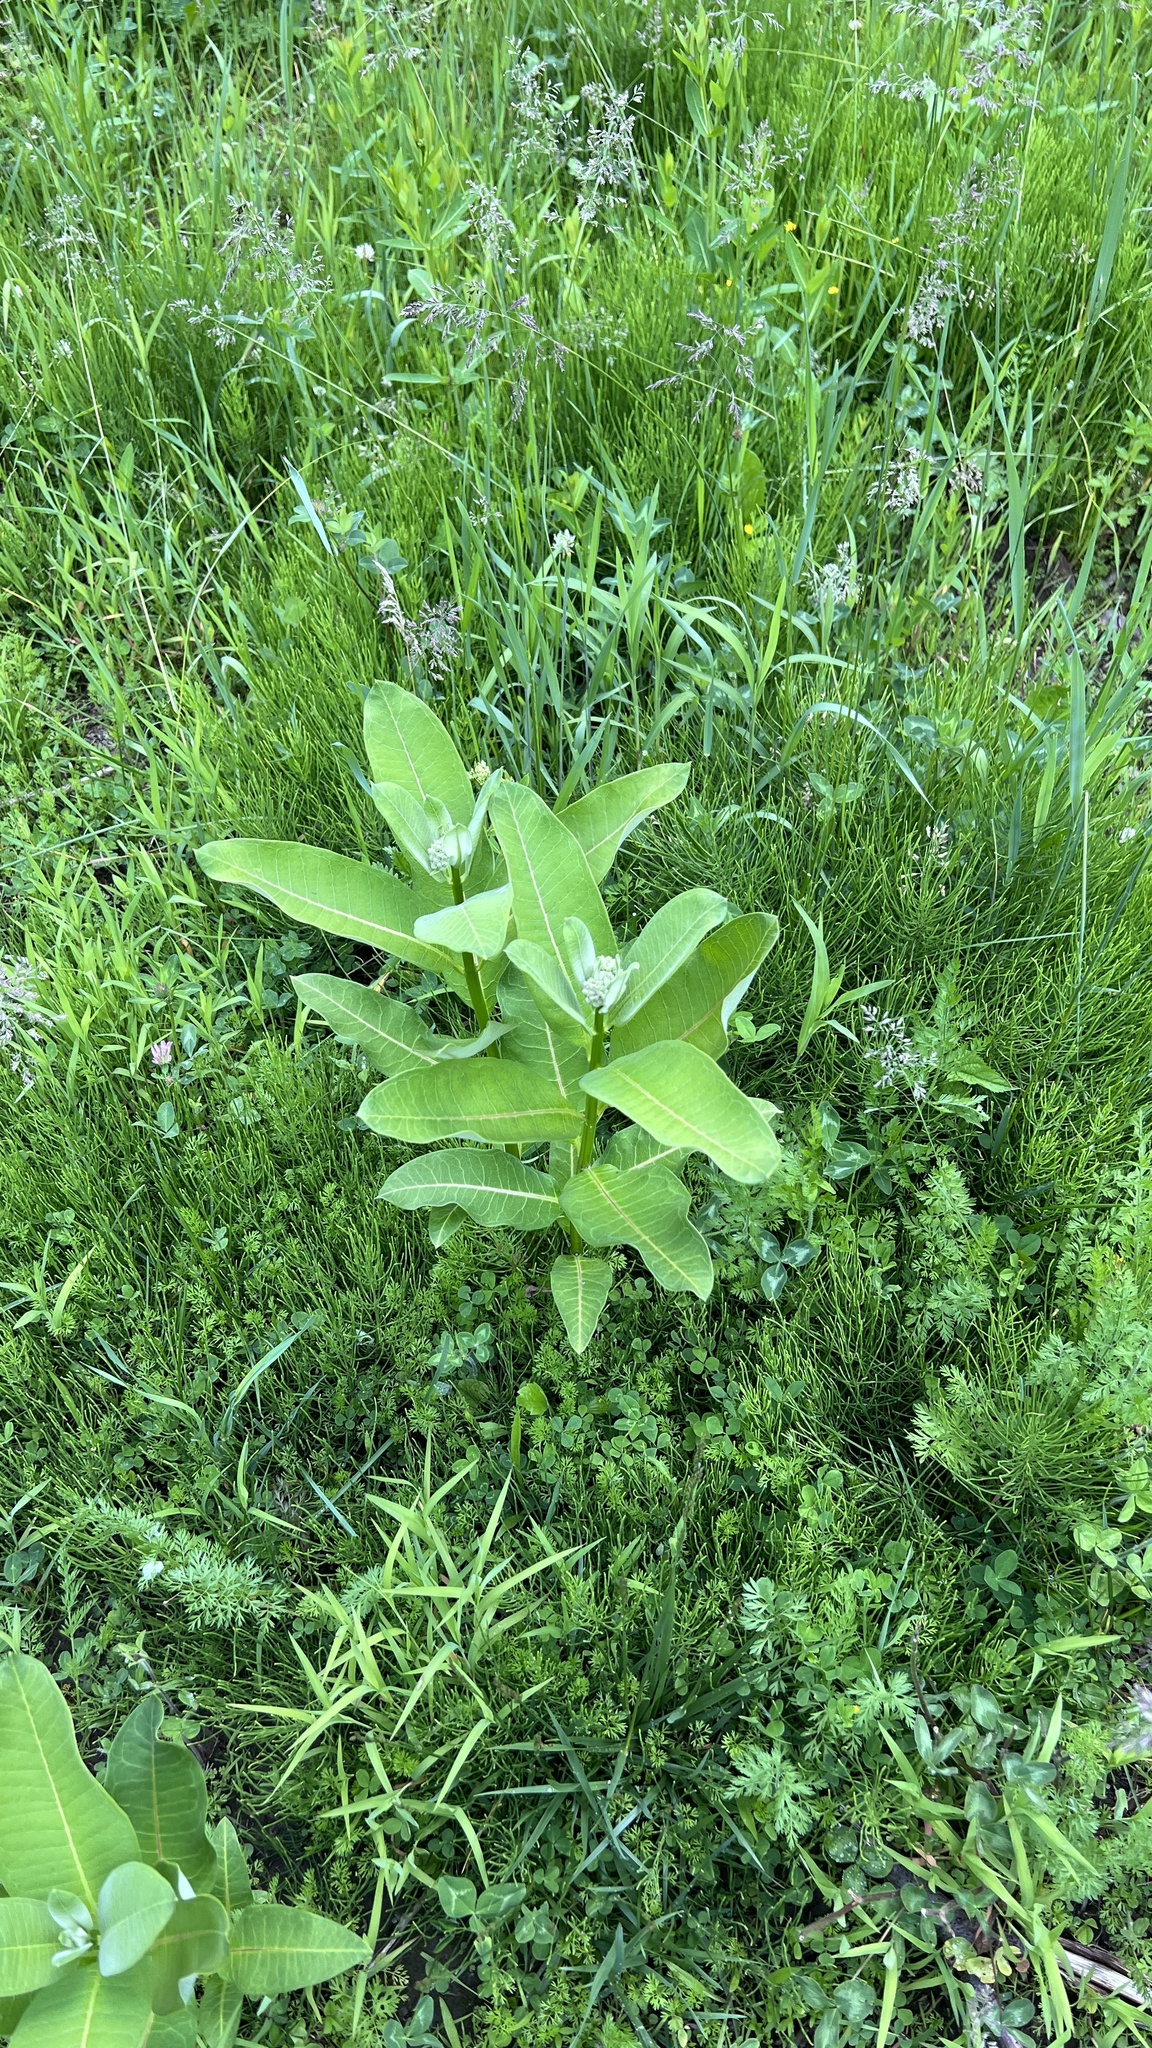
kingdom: Plantae
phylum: Tracheophyta
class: Magnoliopsida
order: Gentianales
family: Apocynaceae
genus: Asclepias
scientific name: Asclepias syriaca
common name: Common milkweed
